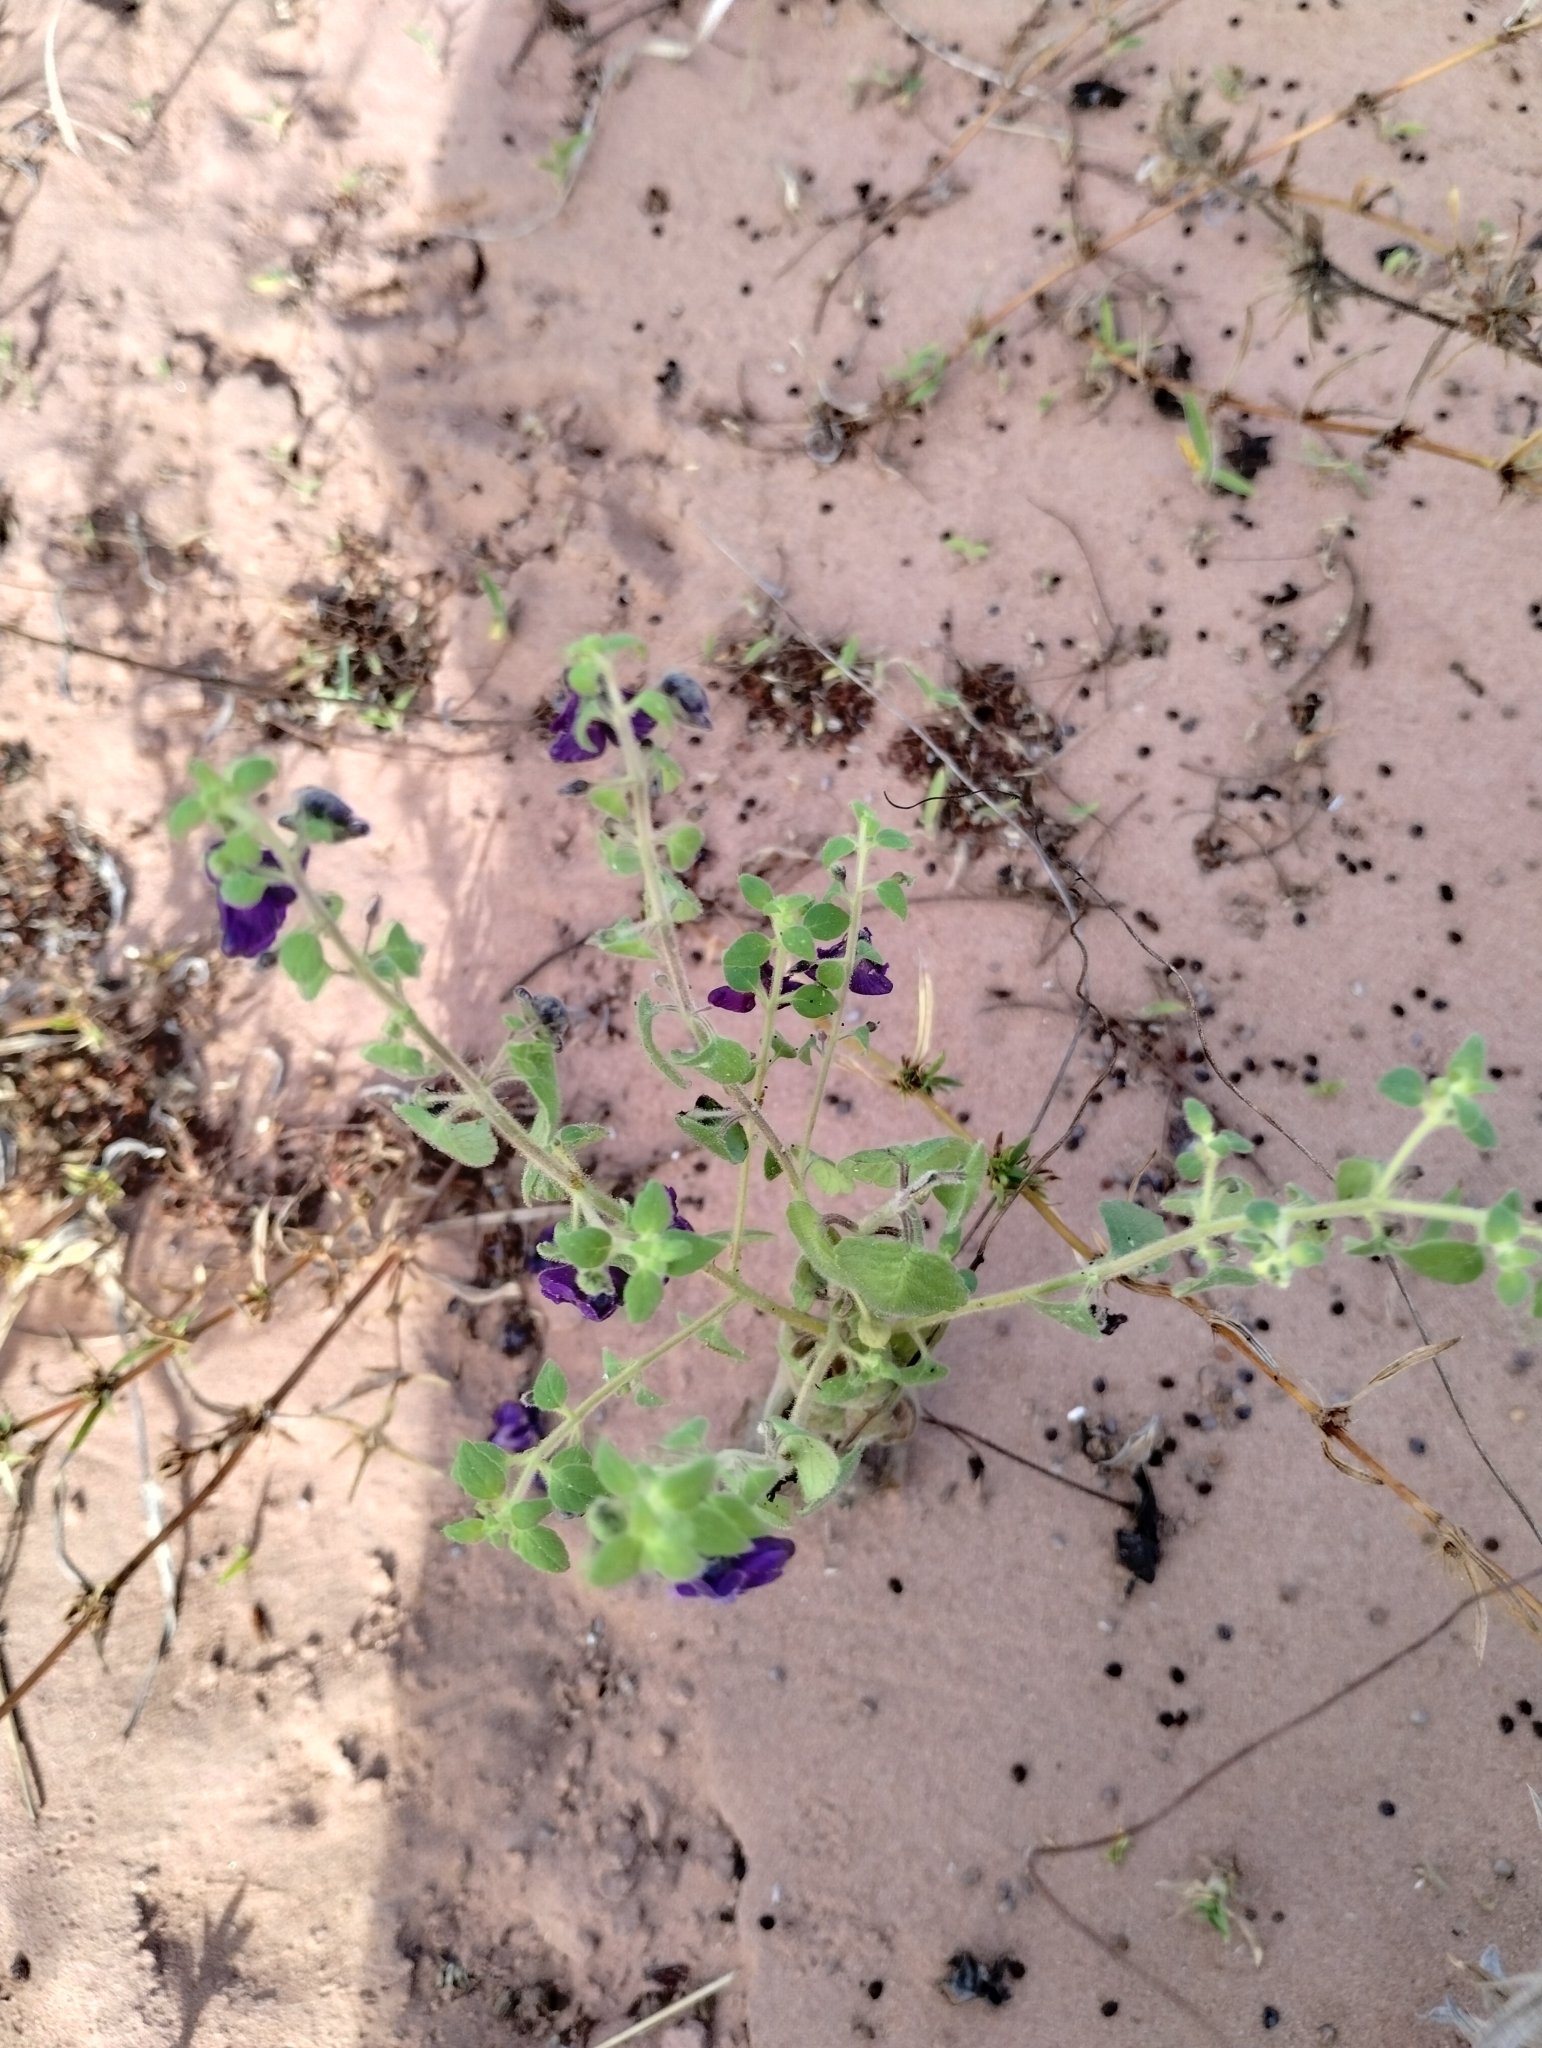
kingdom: Plantae
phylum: Tracheophyta
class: Magnoliopsida
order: Lamiales
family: Plantaginaceae
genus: Angelonia
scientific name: Angelonia pubescens
